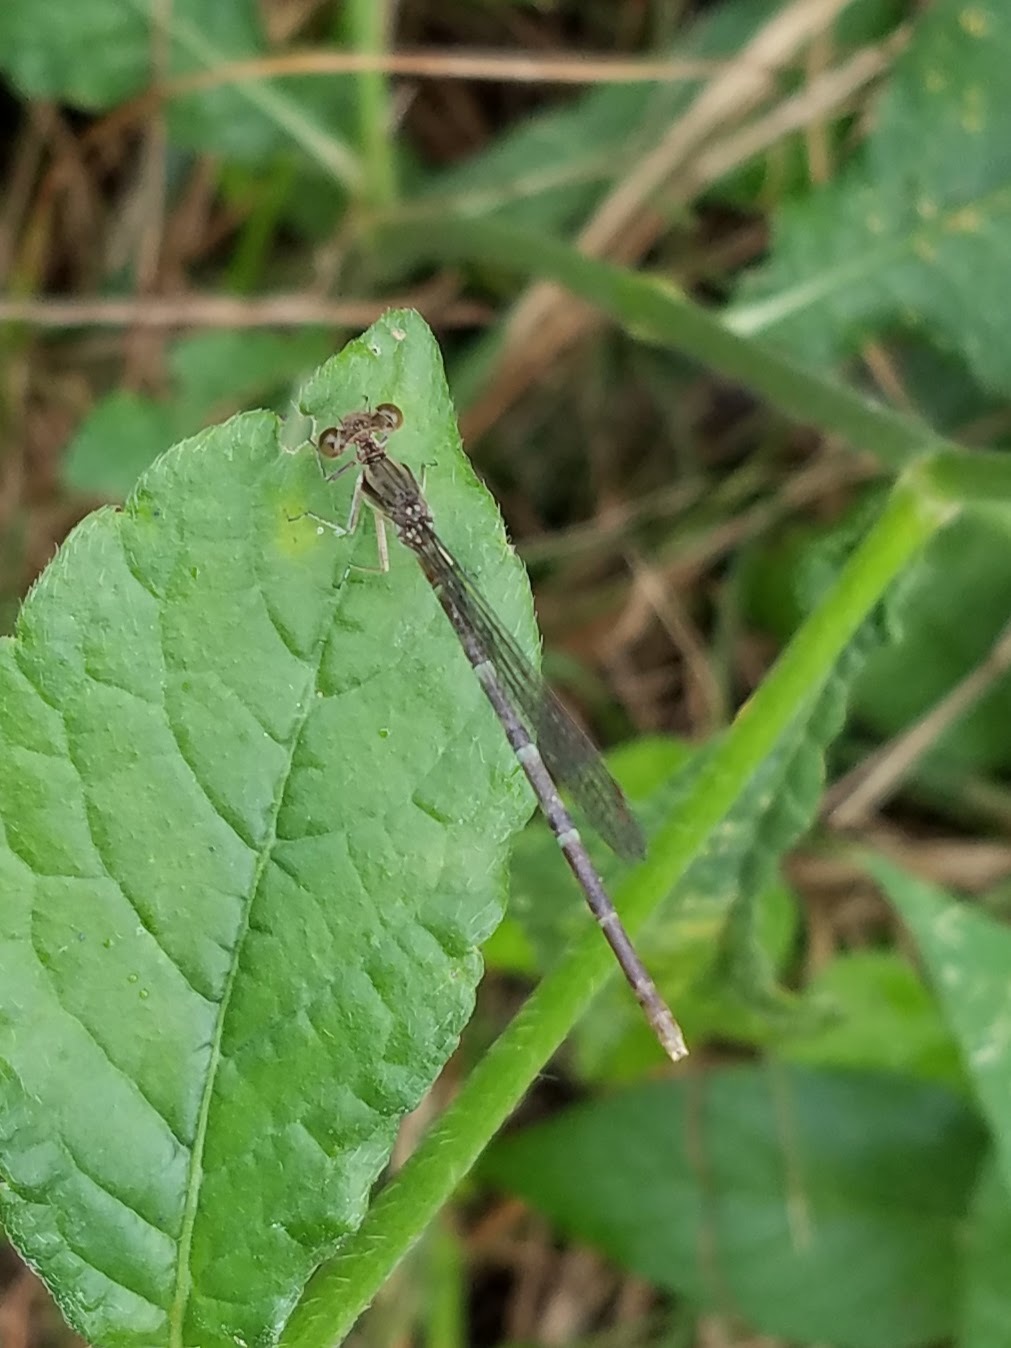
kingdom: Animalia
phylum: Arthropoda
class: Insecta
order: Odonata
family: Coenagrionidae
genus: Argia
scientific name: Argia fumipennis
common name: Variable dancer
